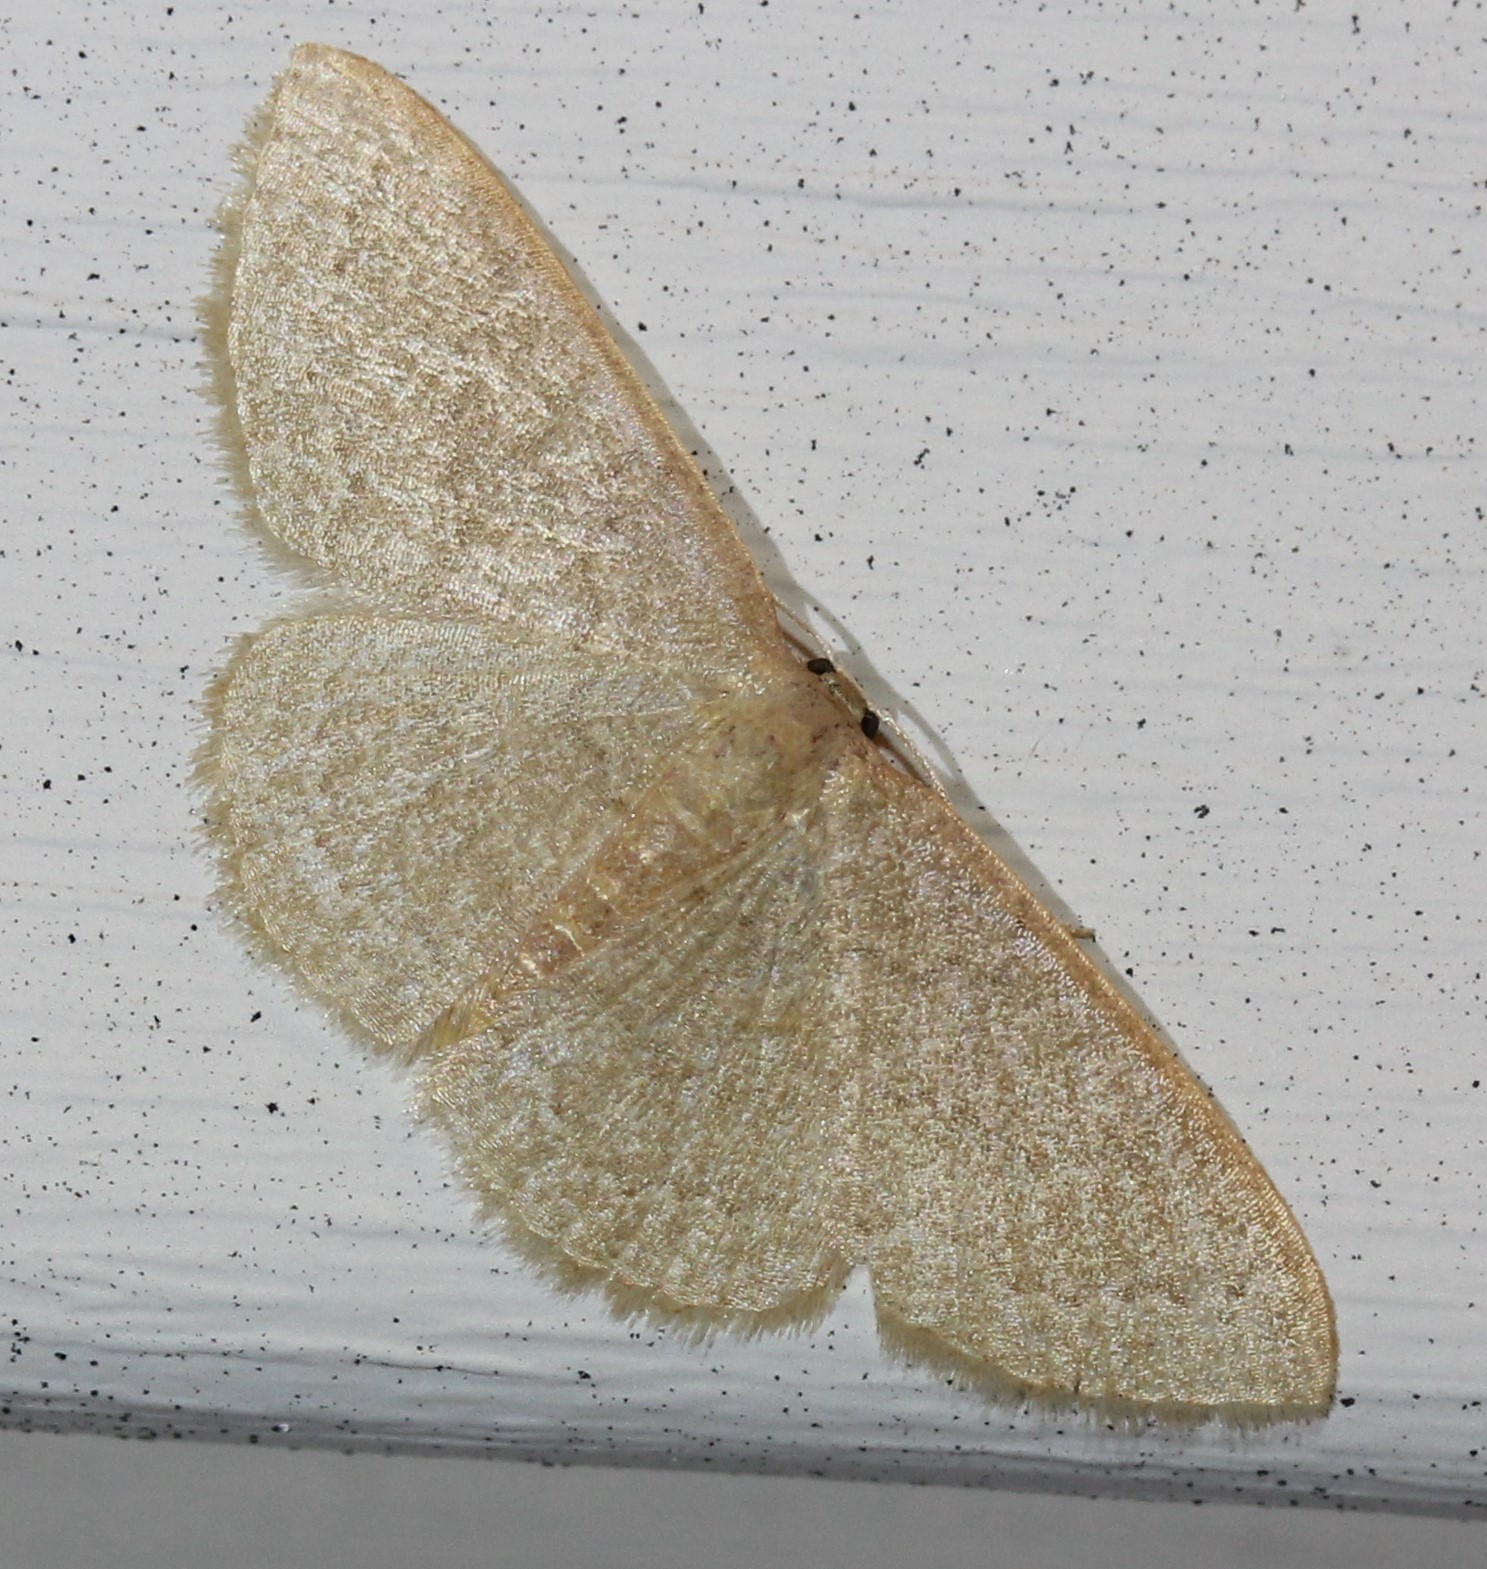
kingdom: Animalia
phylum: Arthropoda
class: Insecta
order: Lepidoptera
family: Geometridae
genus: Pleuroprucha
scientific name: Pleuroprucha insulsaria
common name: Common tan wave
